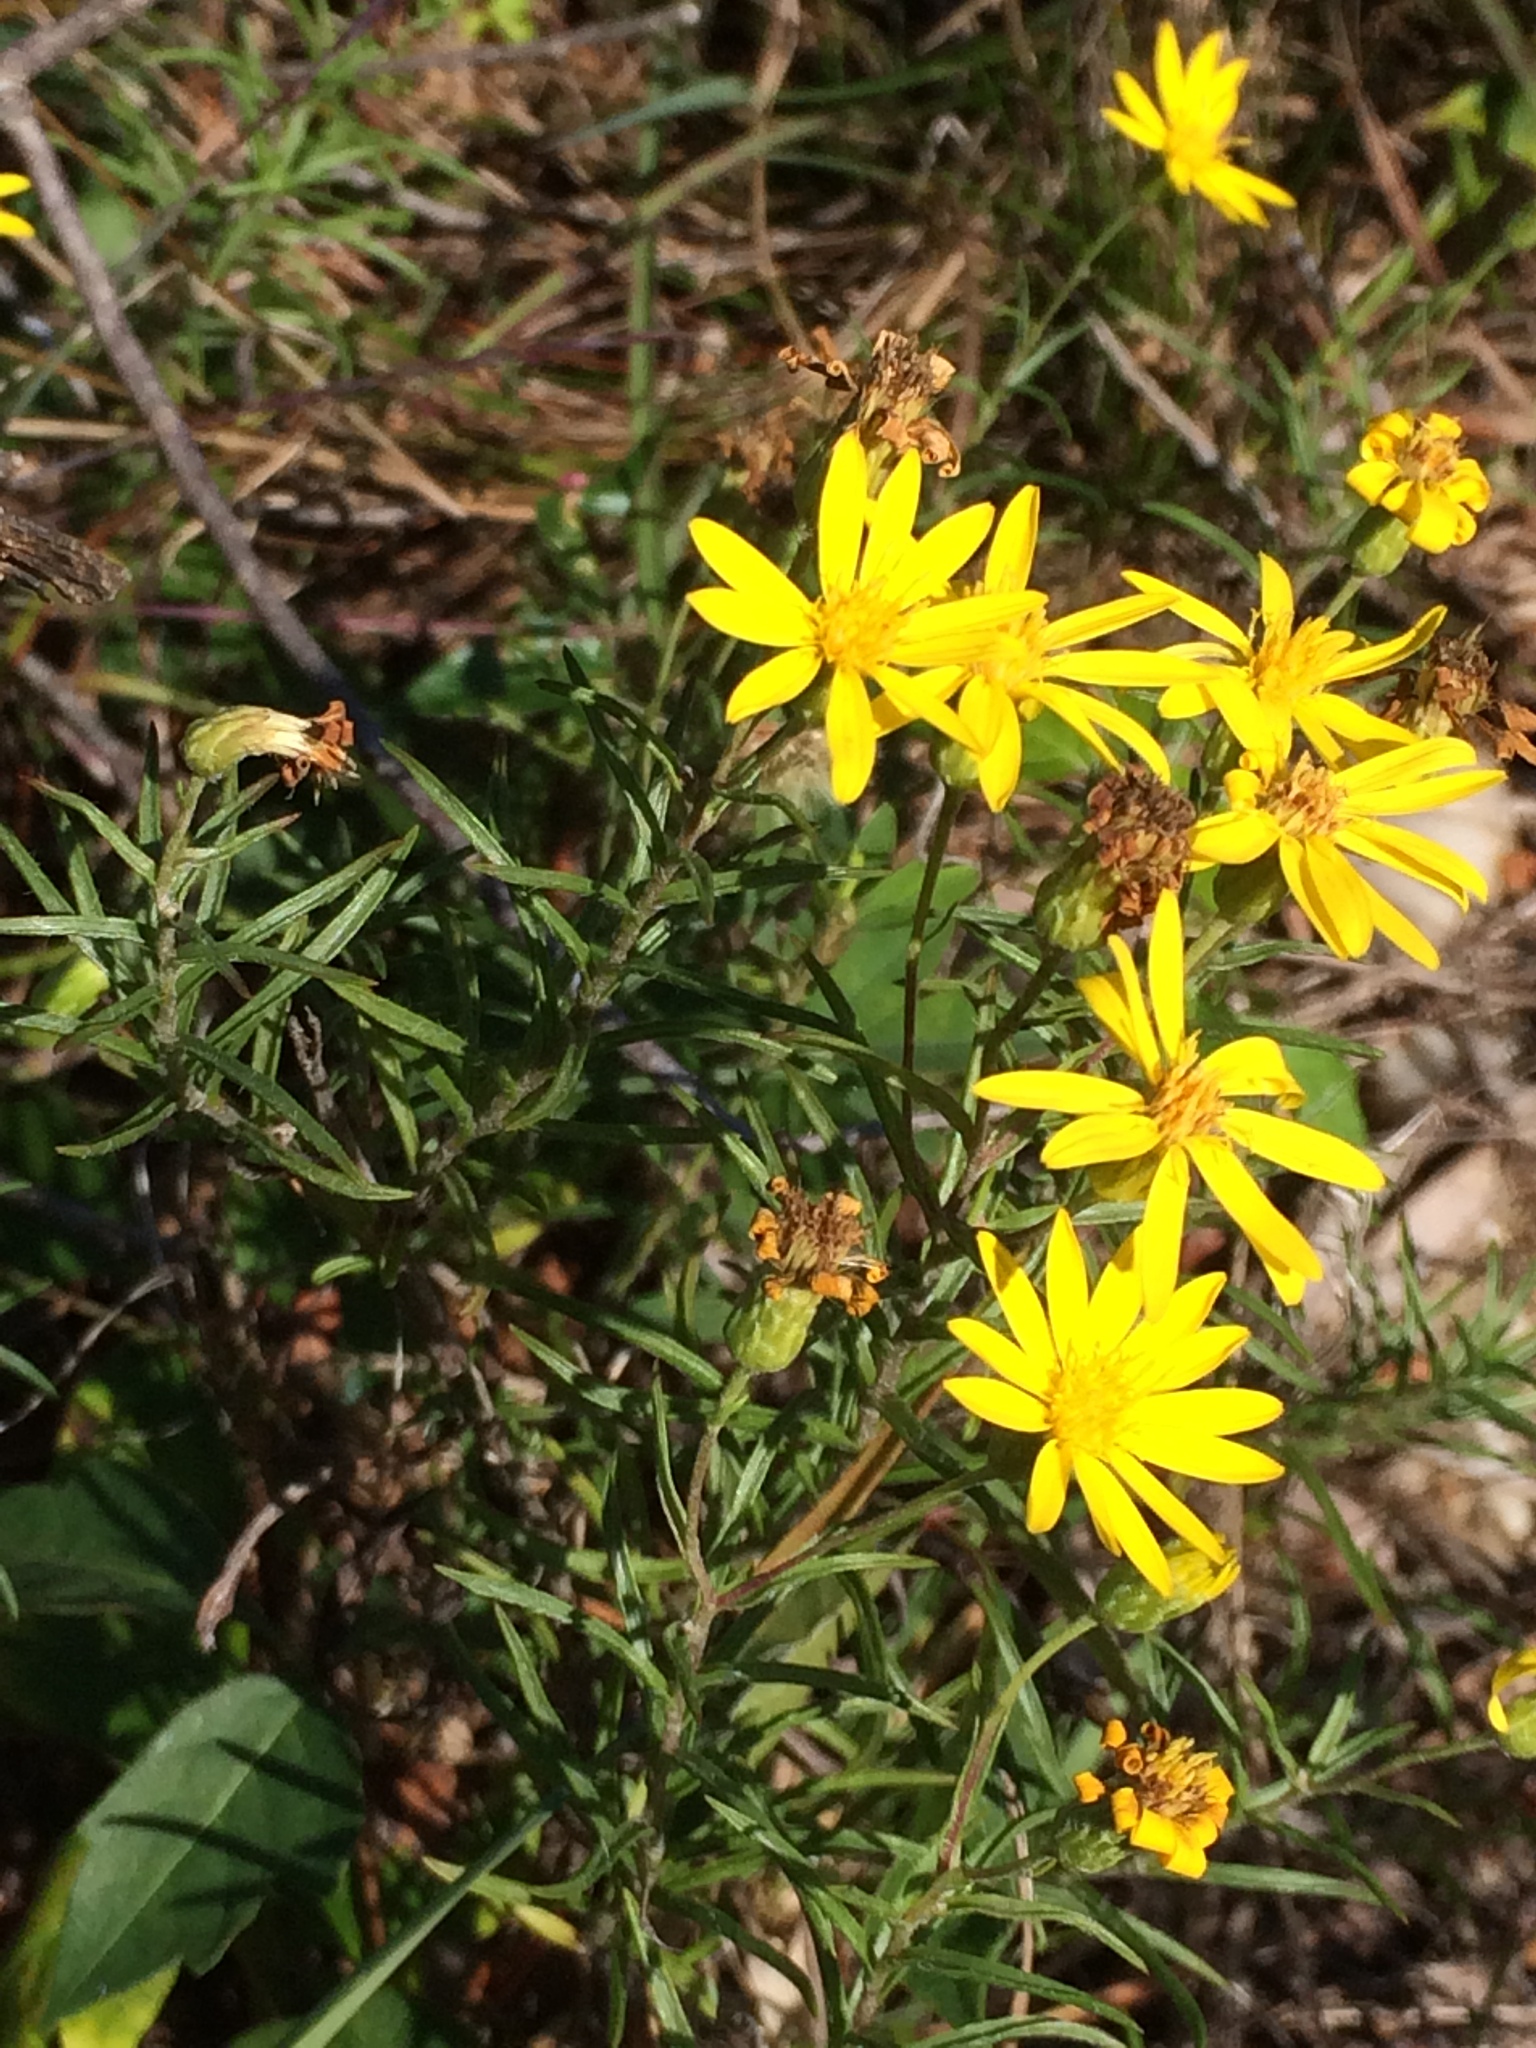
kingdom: Plantae
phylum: Tracheophyta
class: Magnoliopsida
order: Asterales
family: Asteraceae
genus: Pityopsis
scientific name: Pityopsis falcata
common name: Sickle-leaved goldenaster
